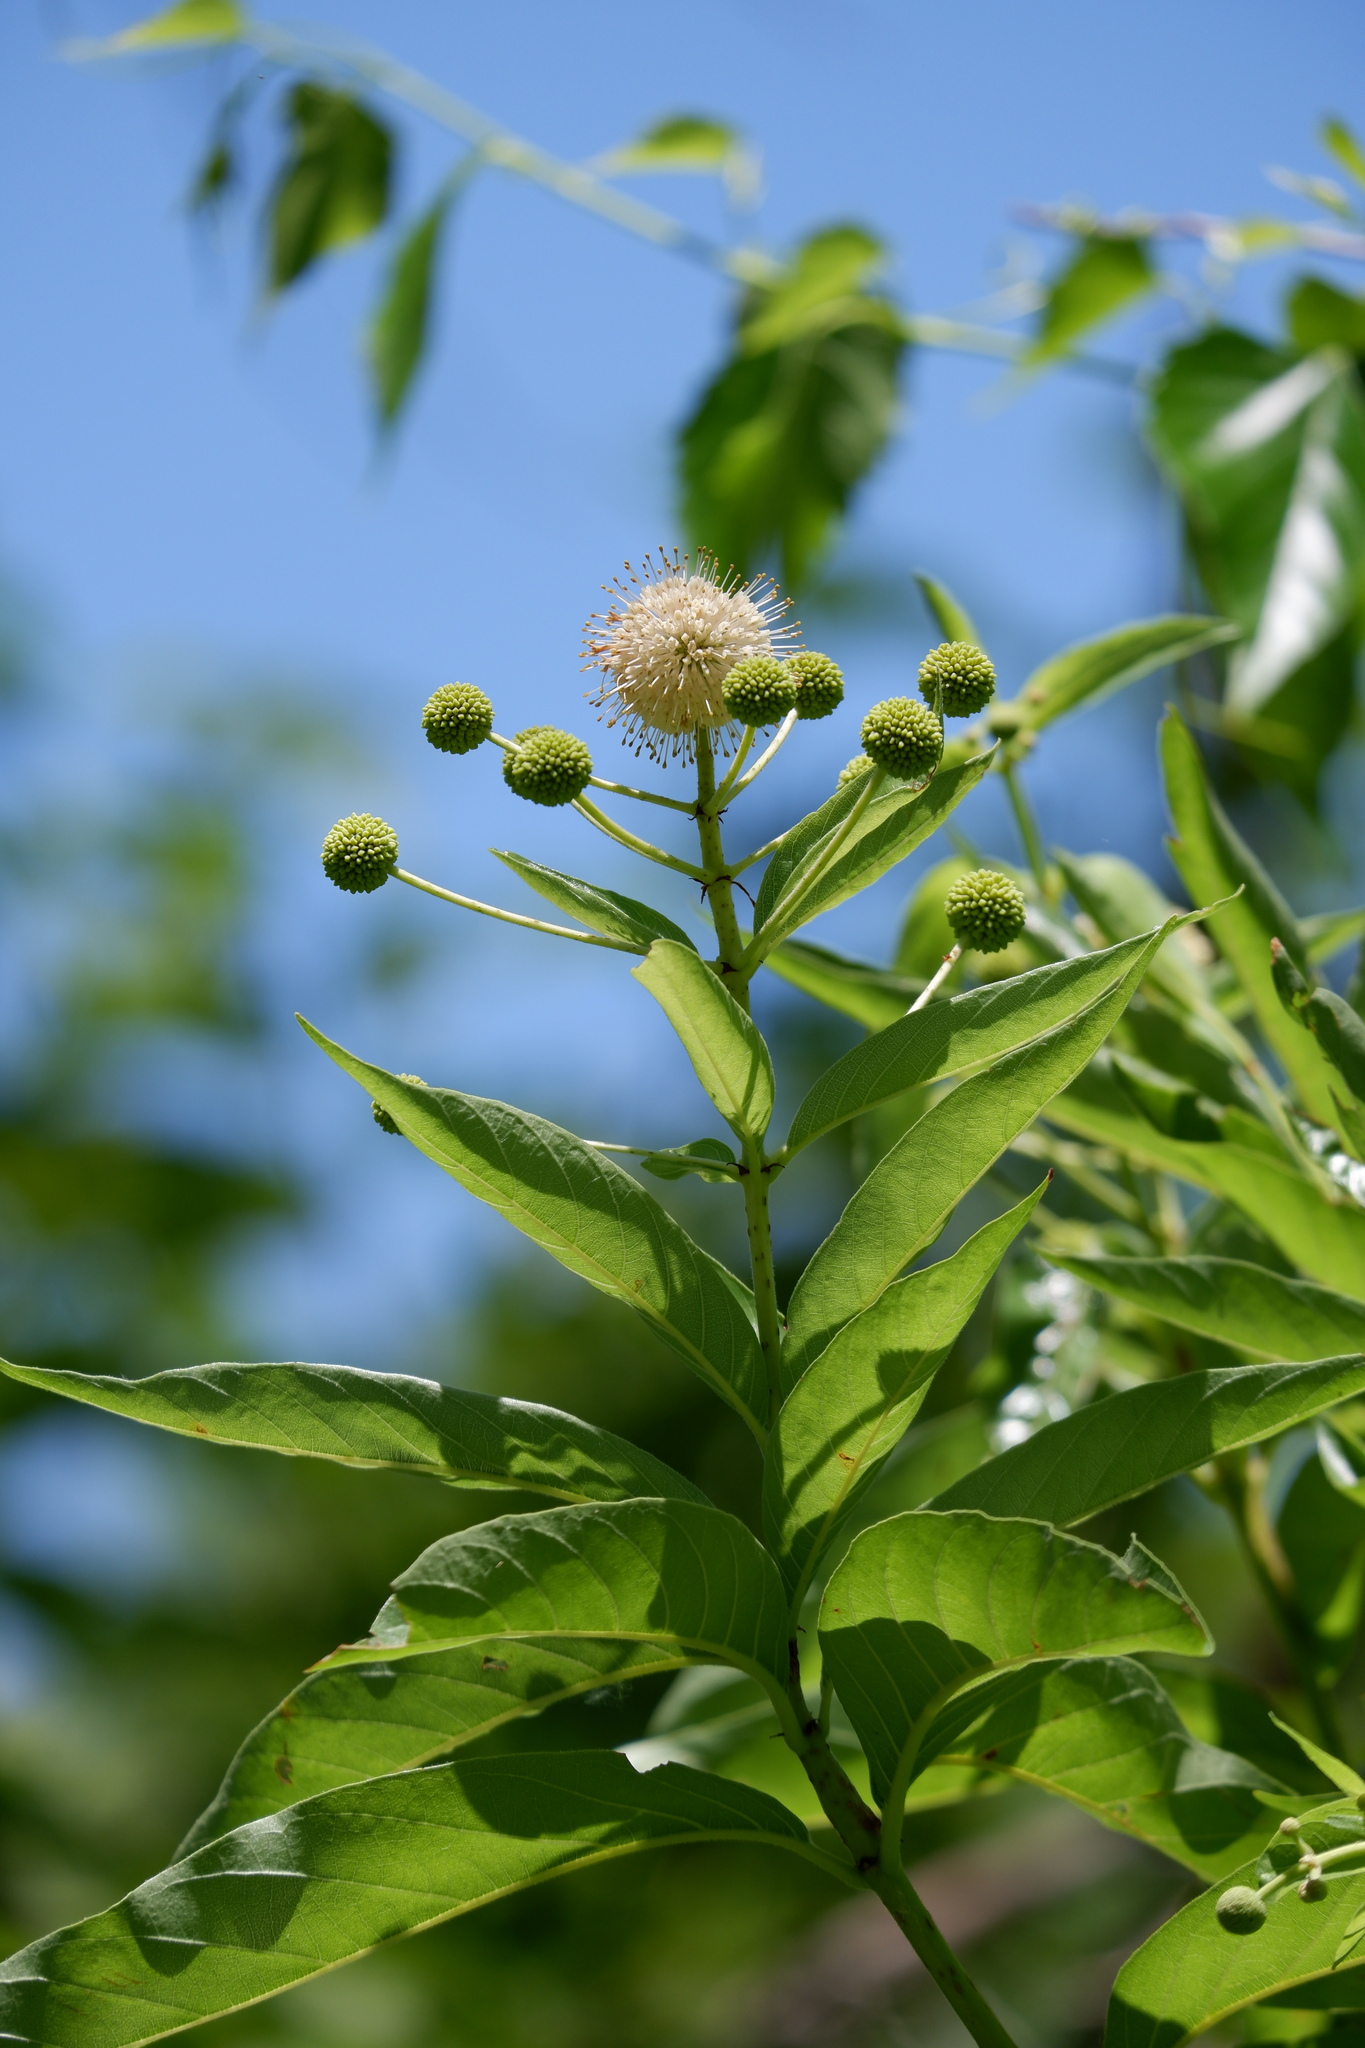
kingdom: Plantae
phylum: Tracheophyta
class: Magnoliopsida
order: Gentianales
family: Rubiaceae
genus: Cephalanthus
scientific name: Cephalanthus occidentalis
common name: Button-willow
